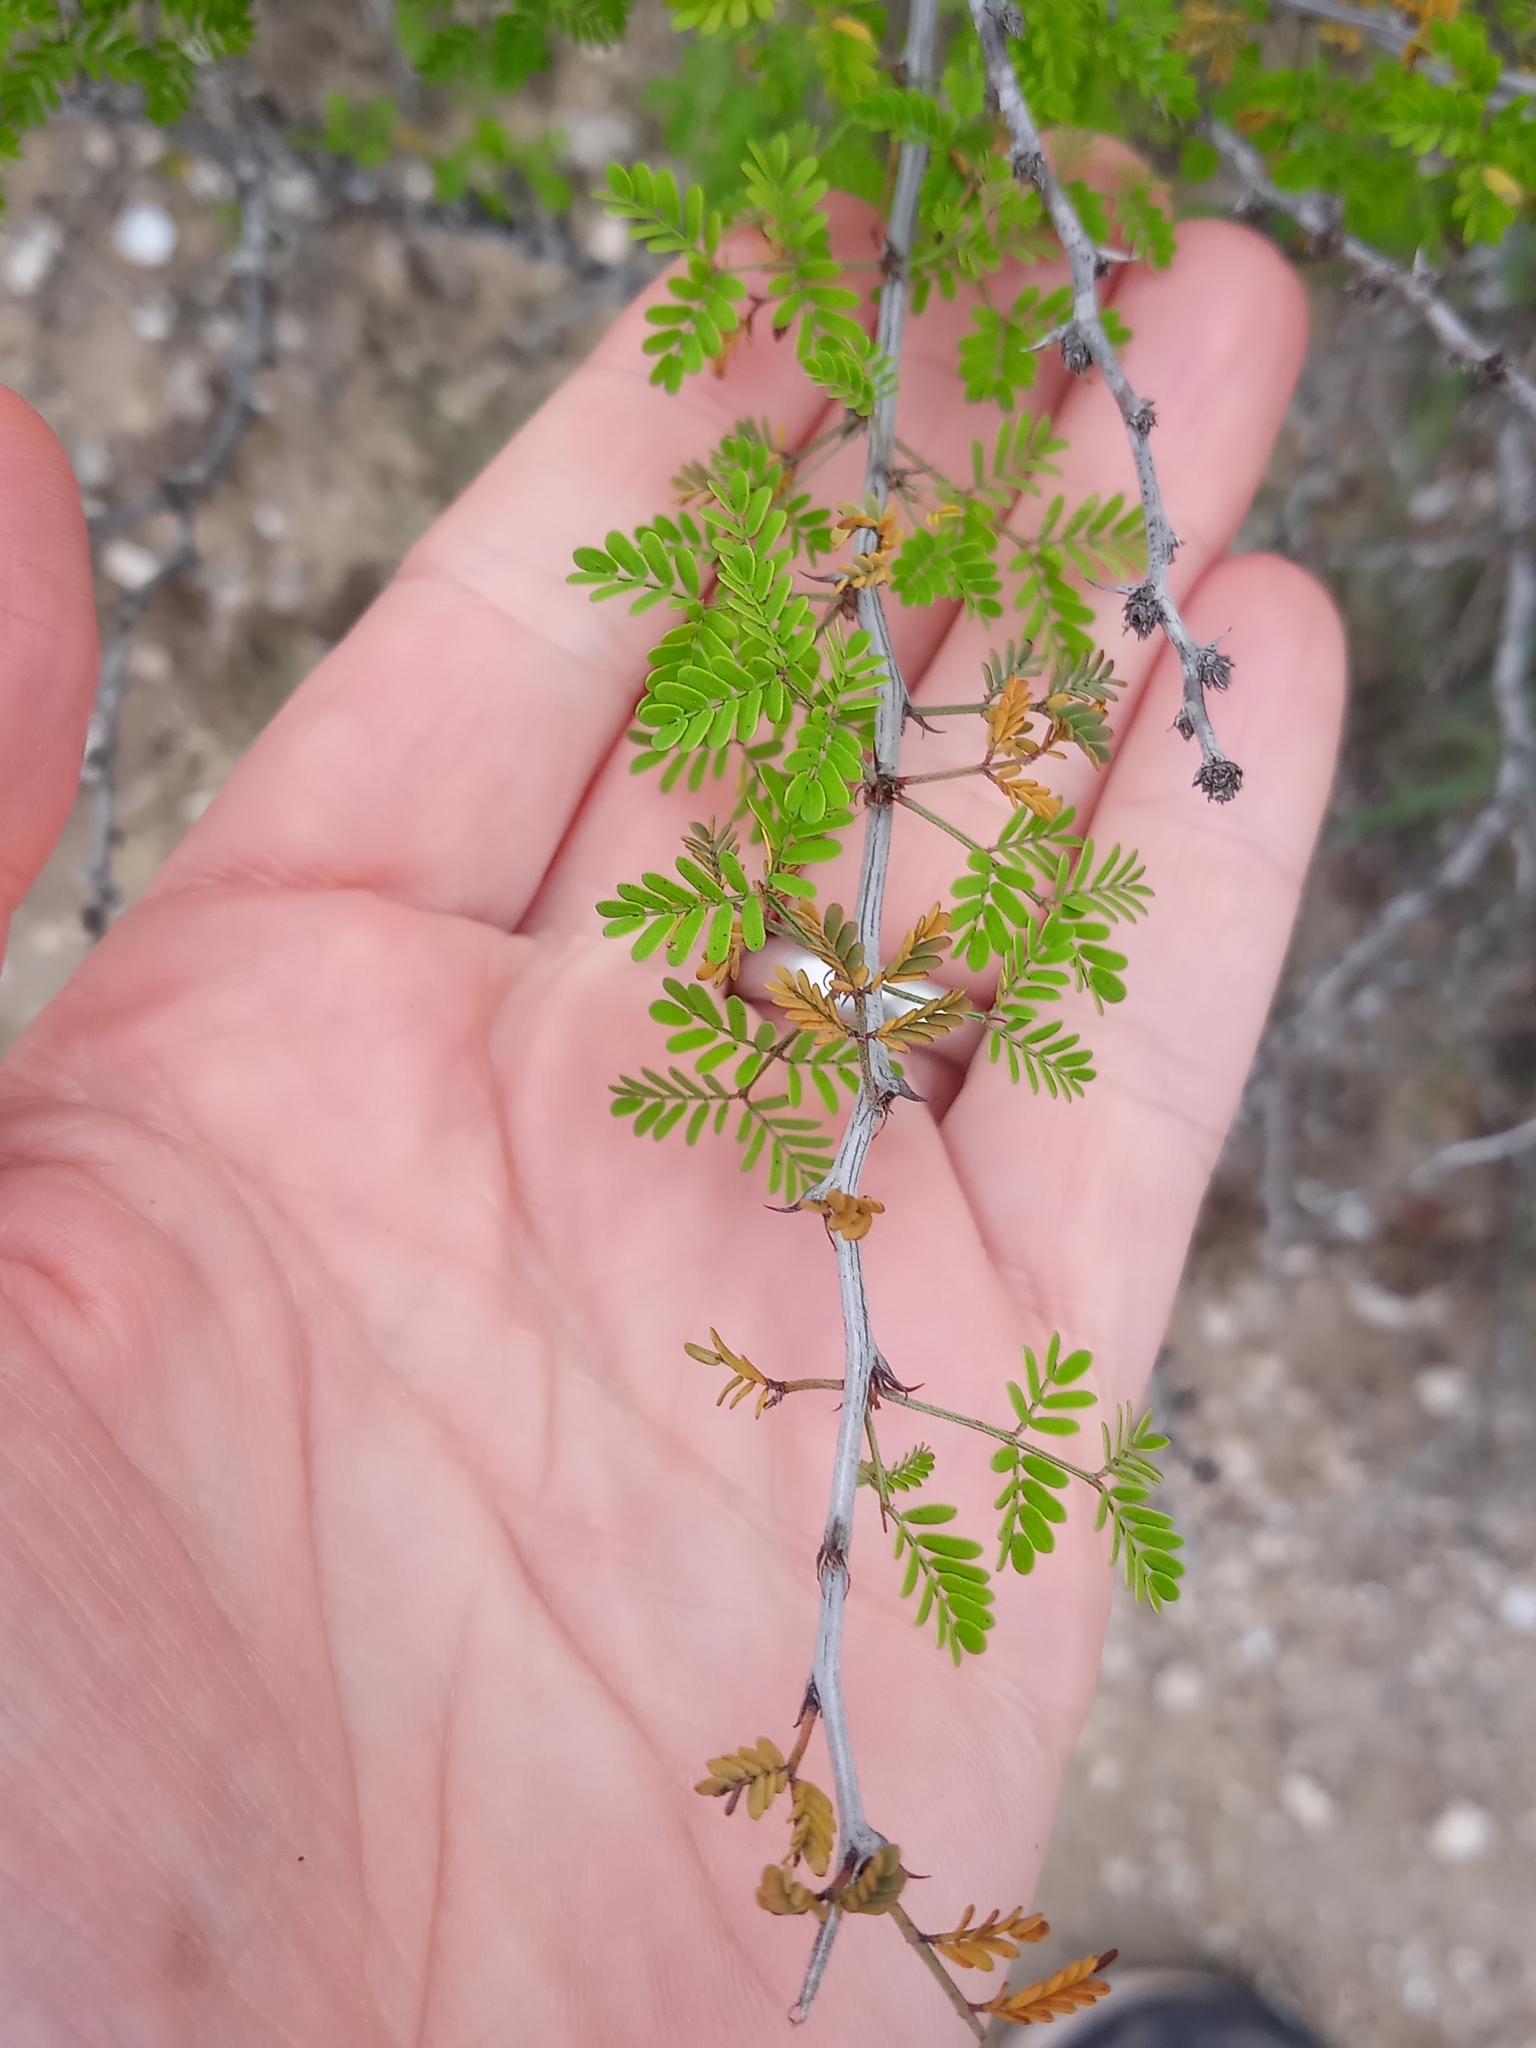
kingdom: Plantae
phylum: Tracheophyta
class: Magnoliopsida
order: Fabales
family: Fabaceae
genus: Mimosa
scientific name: Mimosa texana
